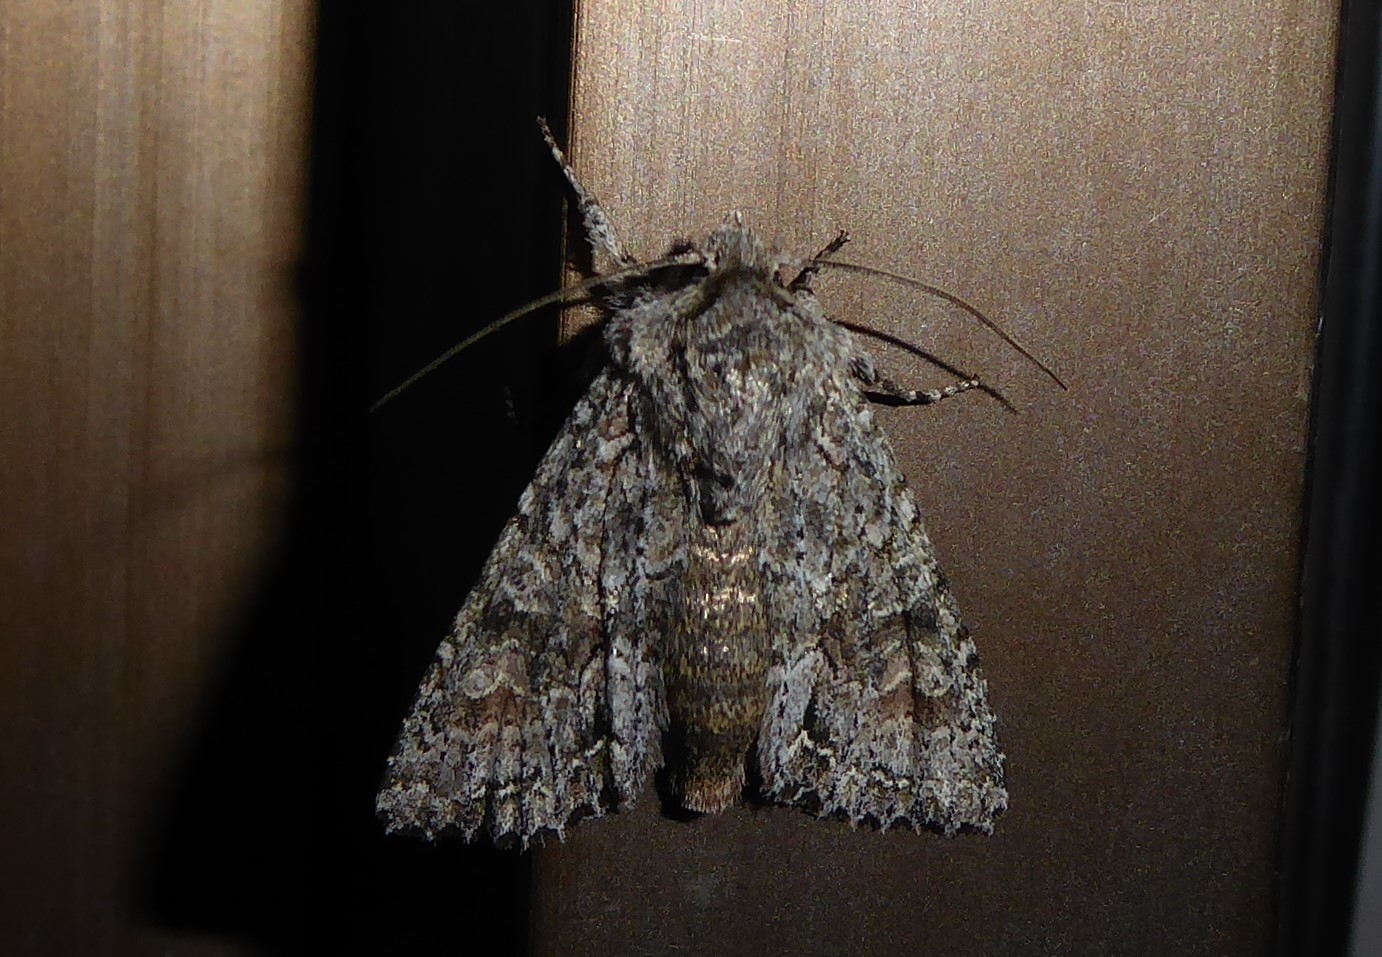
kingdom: Animalia
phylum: Arthropoda
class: Insecta
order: Lepidoptera
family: Noctuidae
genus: Ichneutica
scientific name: Ichneutica mutans
